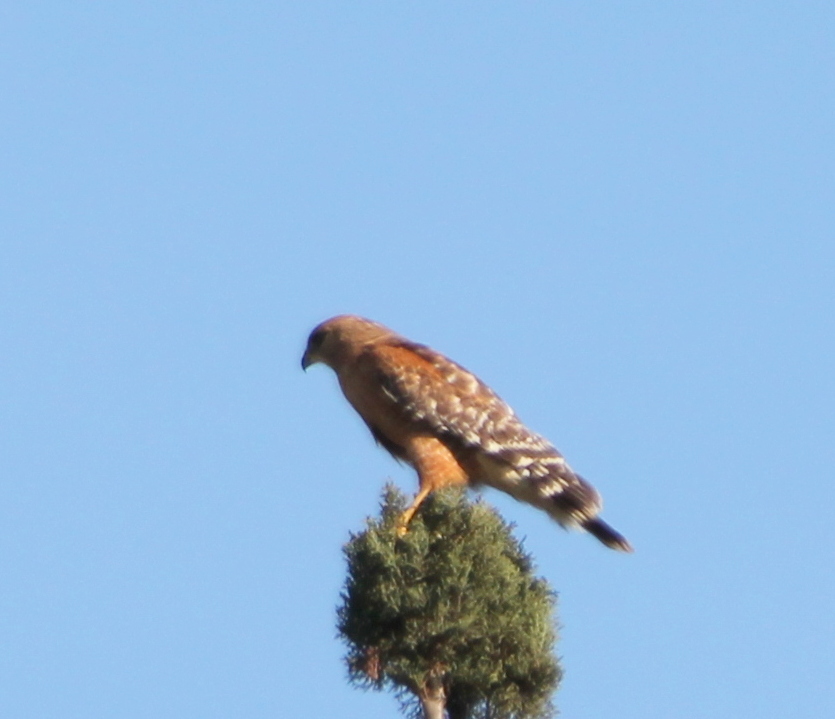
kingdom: Animalia
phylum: Chordata
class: Aves
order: Accipitriformes
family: Accipitridae
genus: Buteo
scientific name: Buteo lineatus
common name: Red-shouldered hawk
